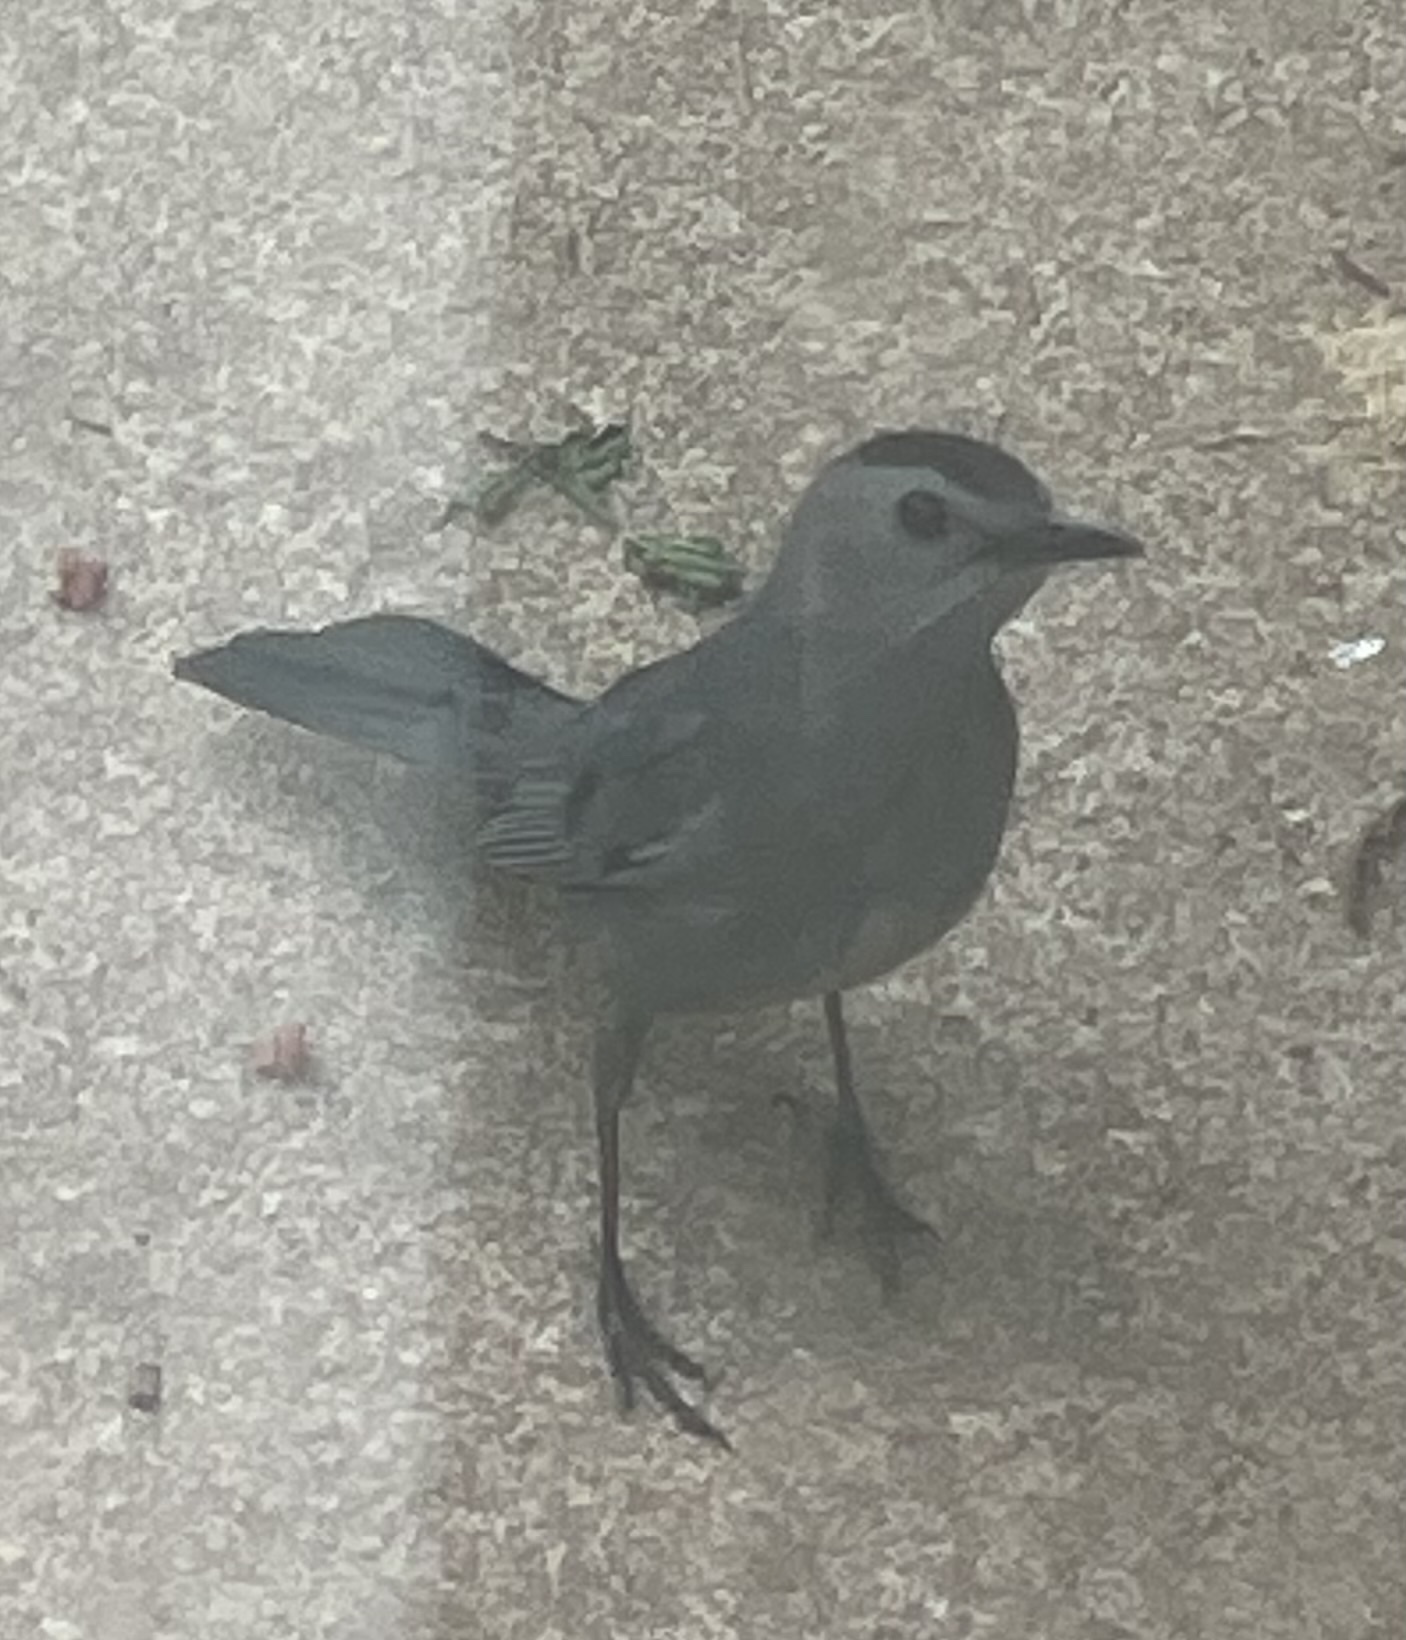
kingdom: Animalia
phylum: Chordata
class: Aves
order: Passeriformes
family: Mimidae
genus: Dumetella
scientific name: Dumetella carolinensis
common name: Gray catbird
